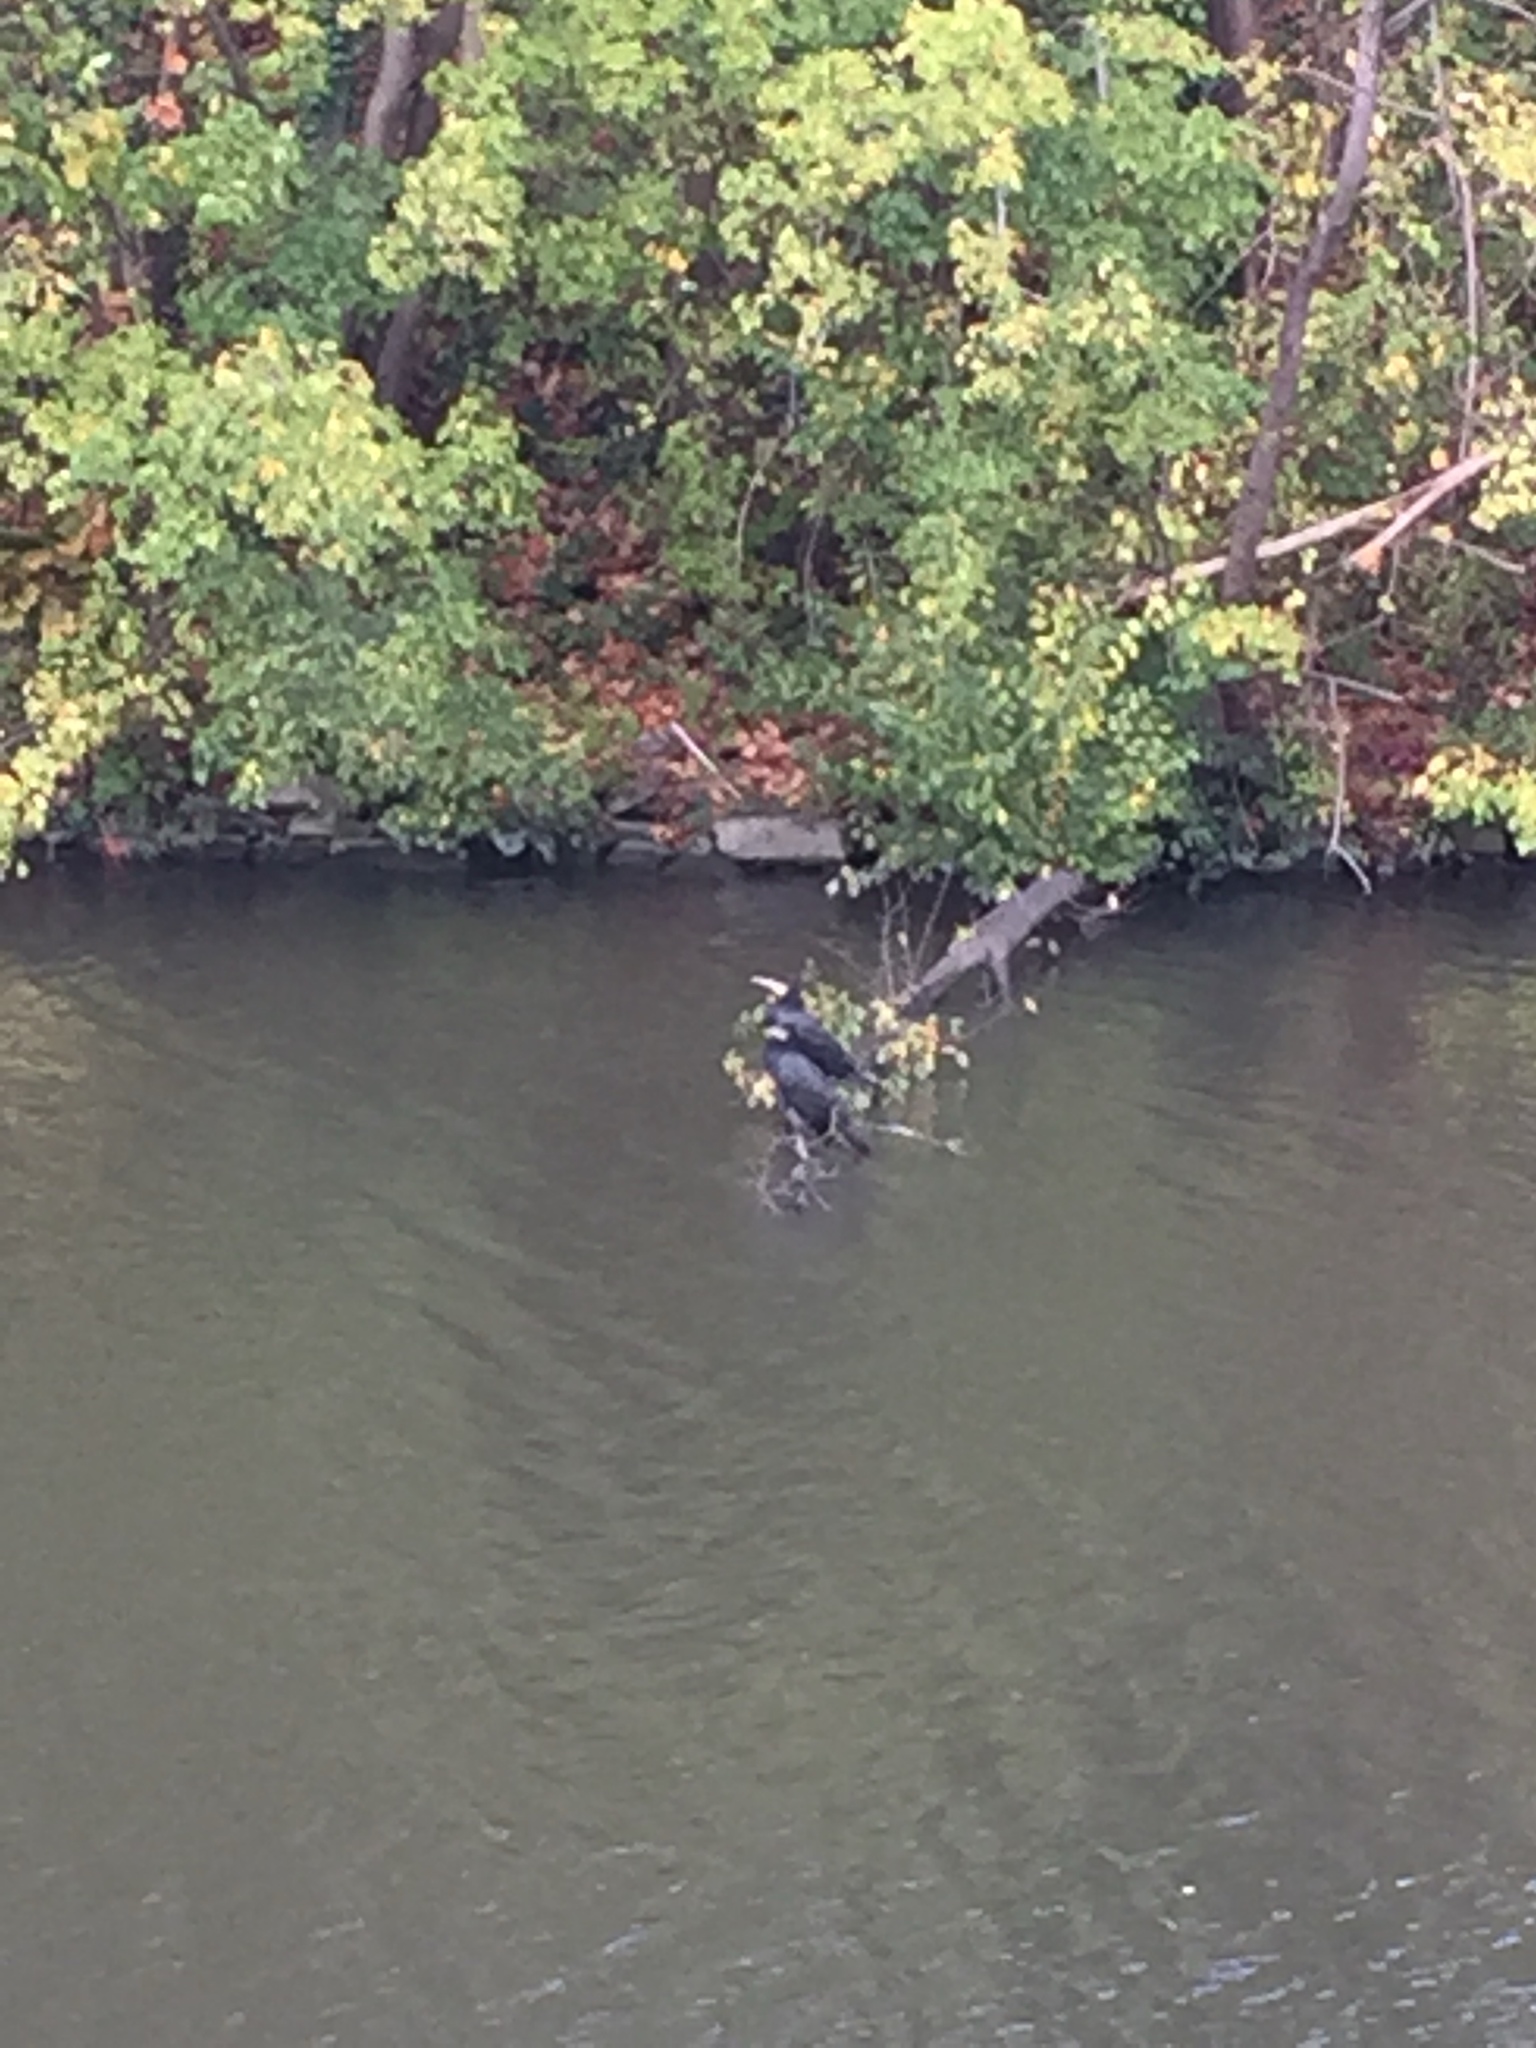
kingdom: Animalia
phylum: Chordata
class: Aves
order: Suliformes
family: Phalacrocoracidae
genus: Phalacrocorax
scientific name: Phalacrocorax carbo
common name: Great cormorant
